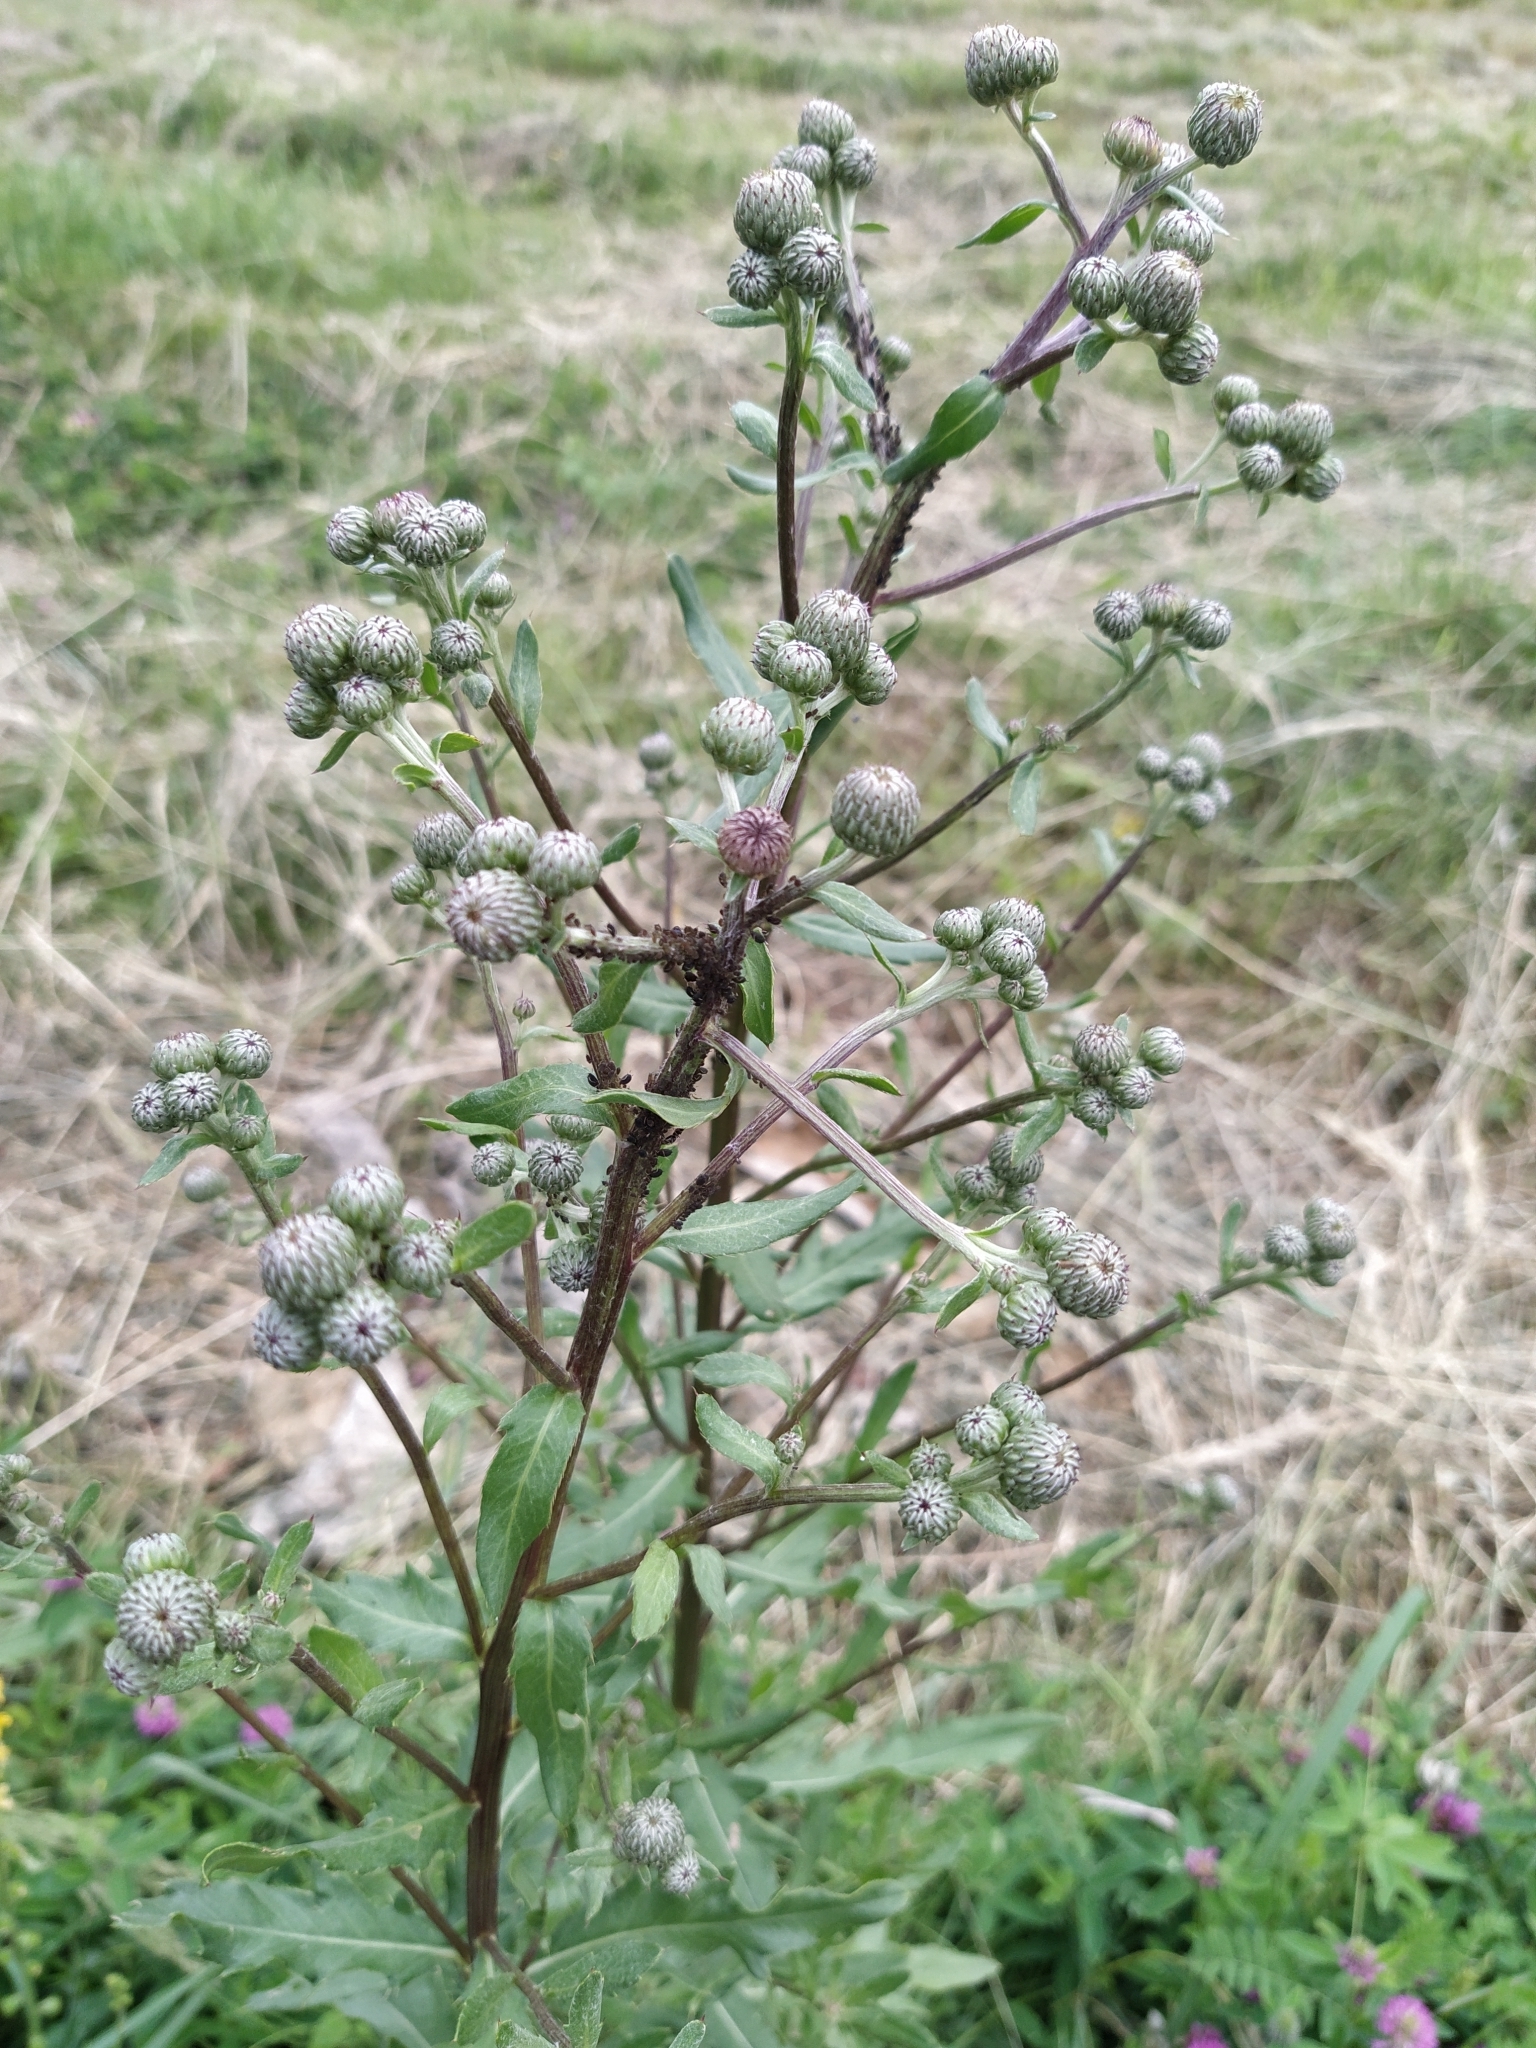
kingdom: Plantae
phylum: Tracheophyta
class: Magnoliopsida
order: Asterales
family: Asteraceae
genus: Cirsium
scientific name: Cirsium arvense
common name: Creeping thistle
